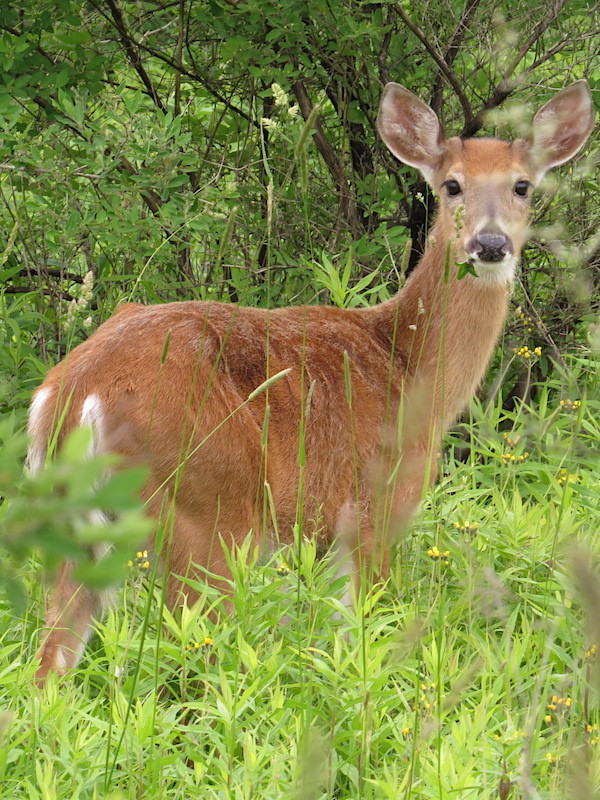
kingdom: Animalia
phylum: Chordata
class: Mammalia
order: Artiodactyla
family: Cervidae
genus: Odocoileus
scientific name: Odocoileus virginianus
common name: White-tailed deer
